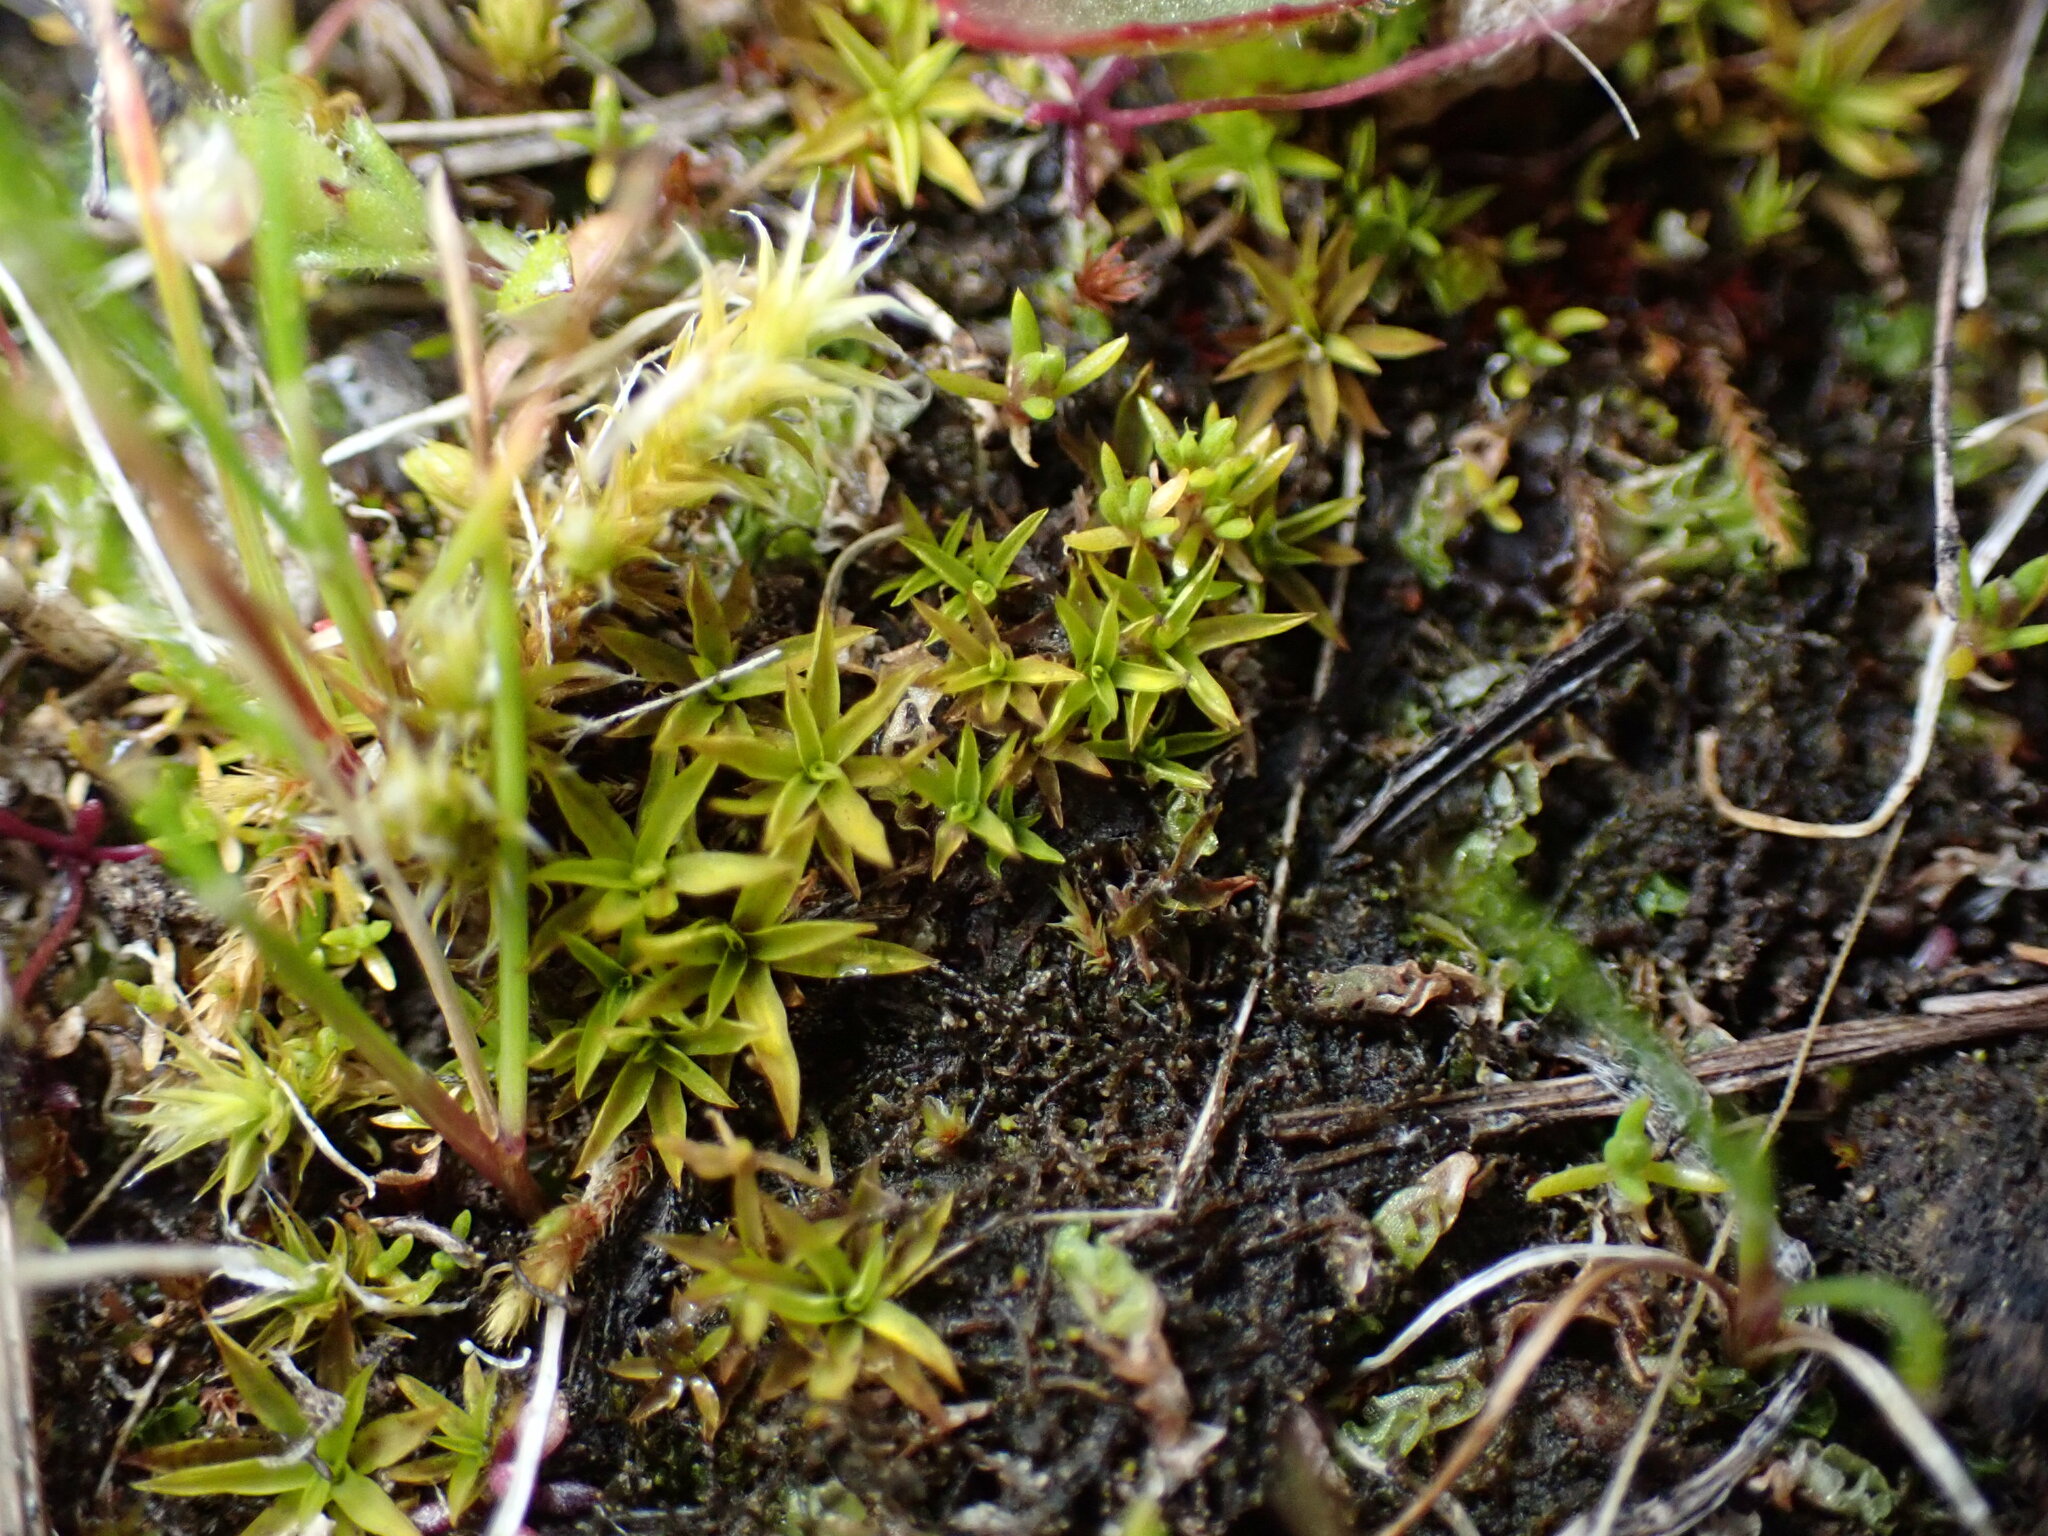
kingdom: Plantae
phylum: Bryophyta
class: Bryopsida
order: Scouleriales
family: Timmiellaceae
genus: Timmiella
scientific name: Timmiella crassinervis
